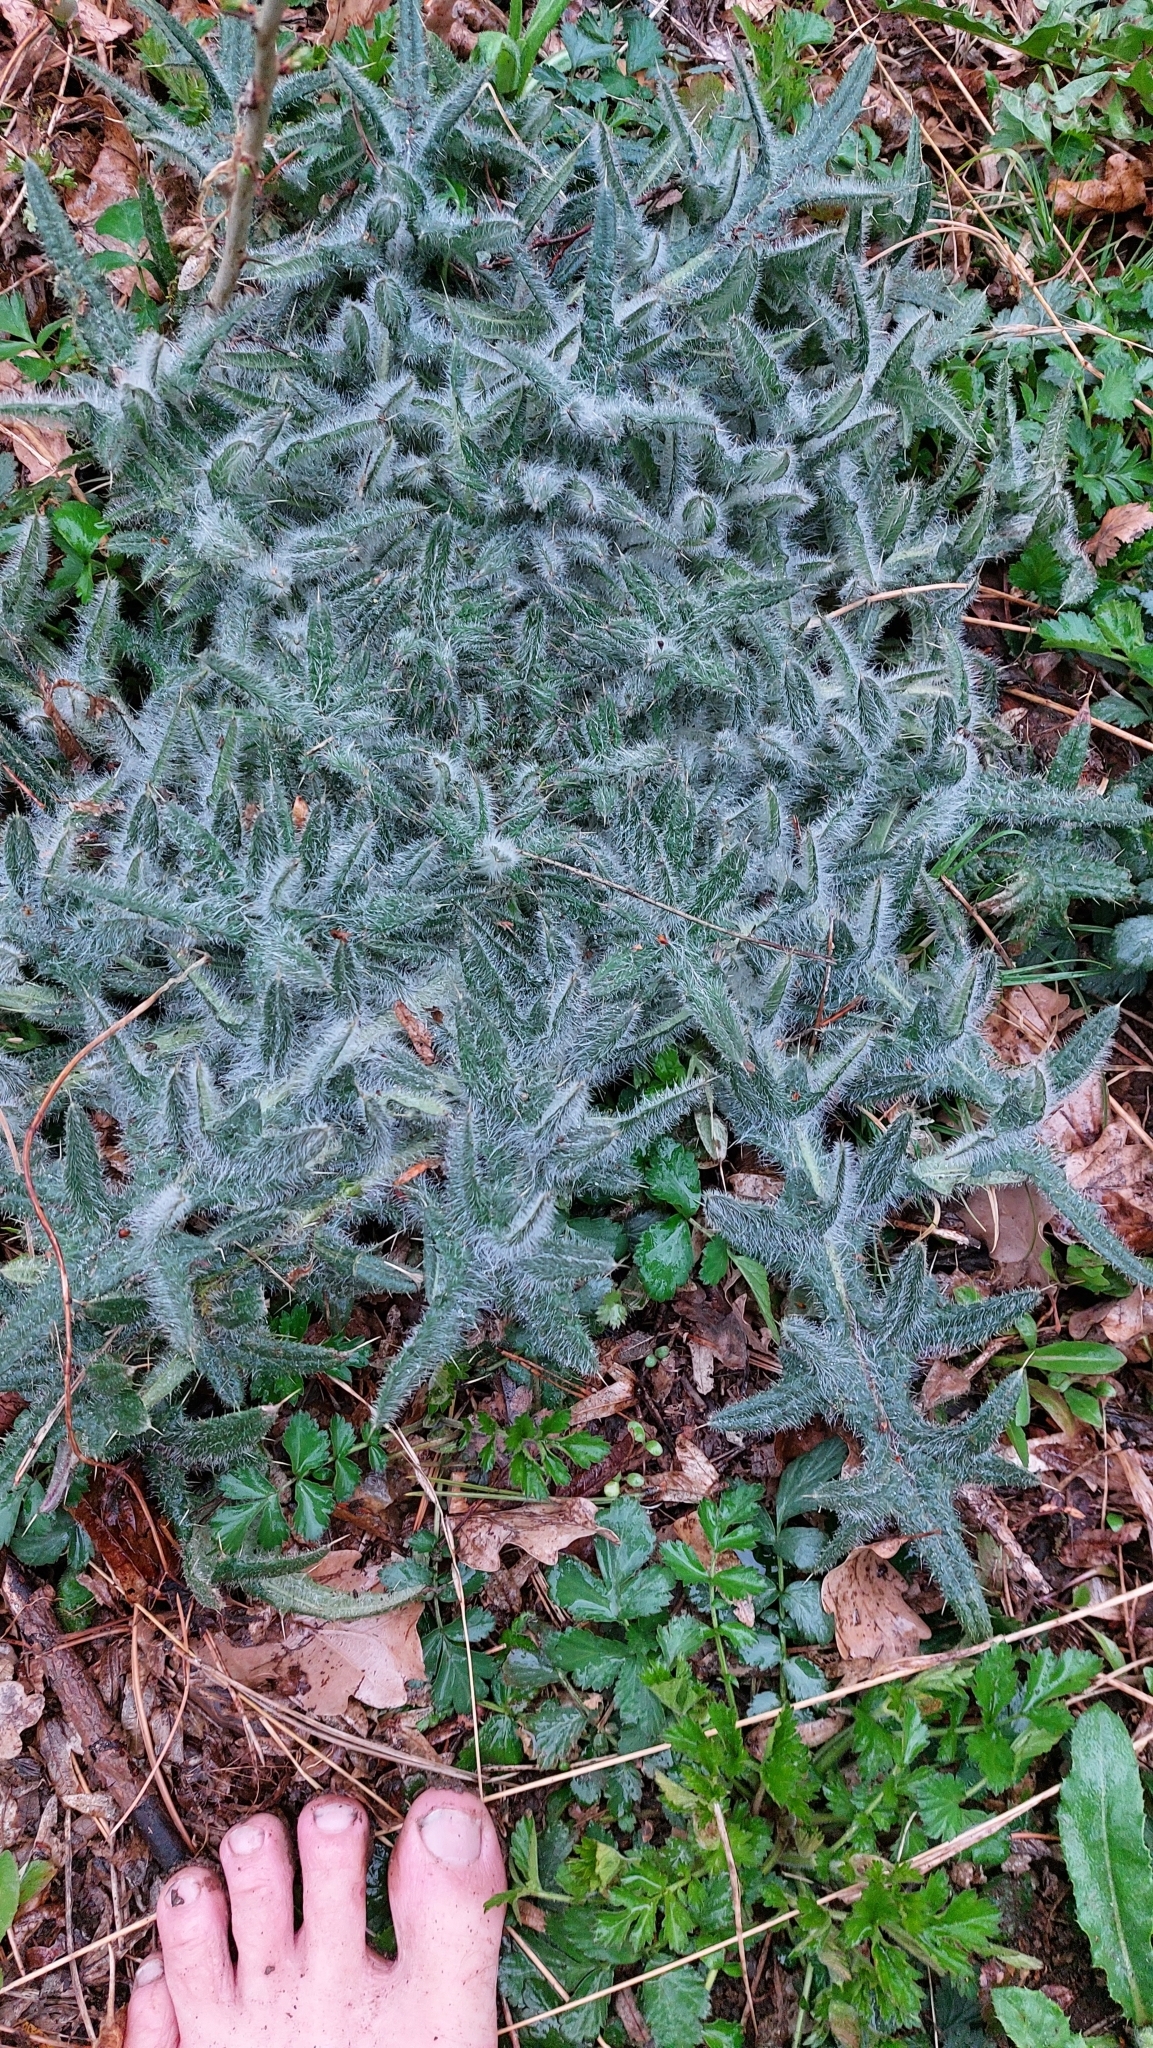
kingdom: Plantae
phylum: Tracheophyta
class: Magnoliopsida
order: Asterales
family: Asteraceae
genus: Cirsium
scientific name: Cirsium vulgare
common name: Bull thistle
